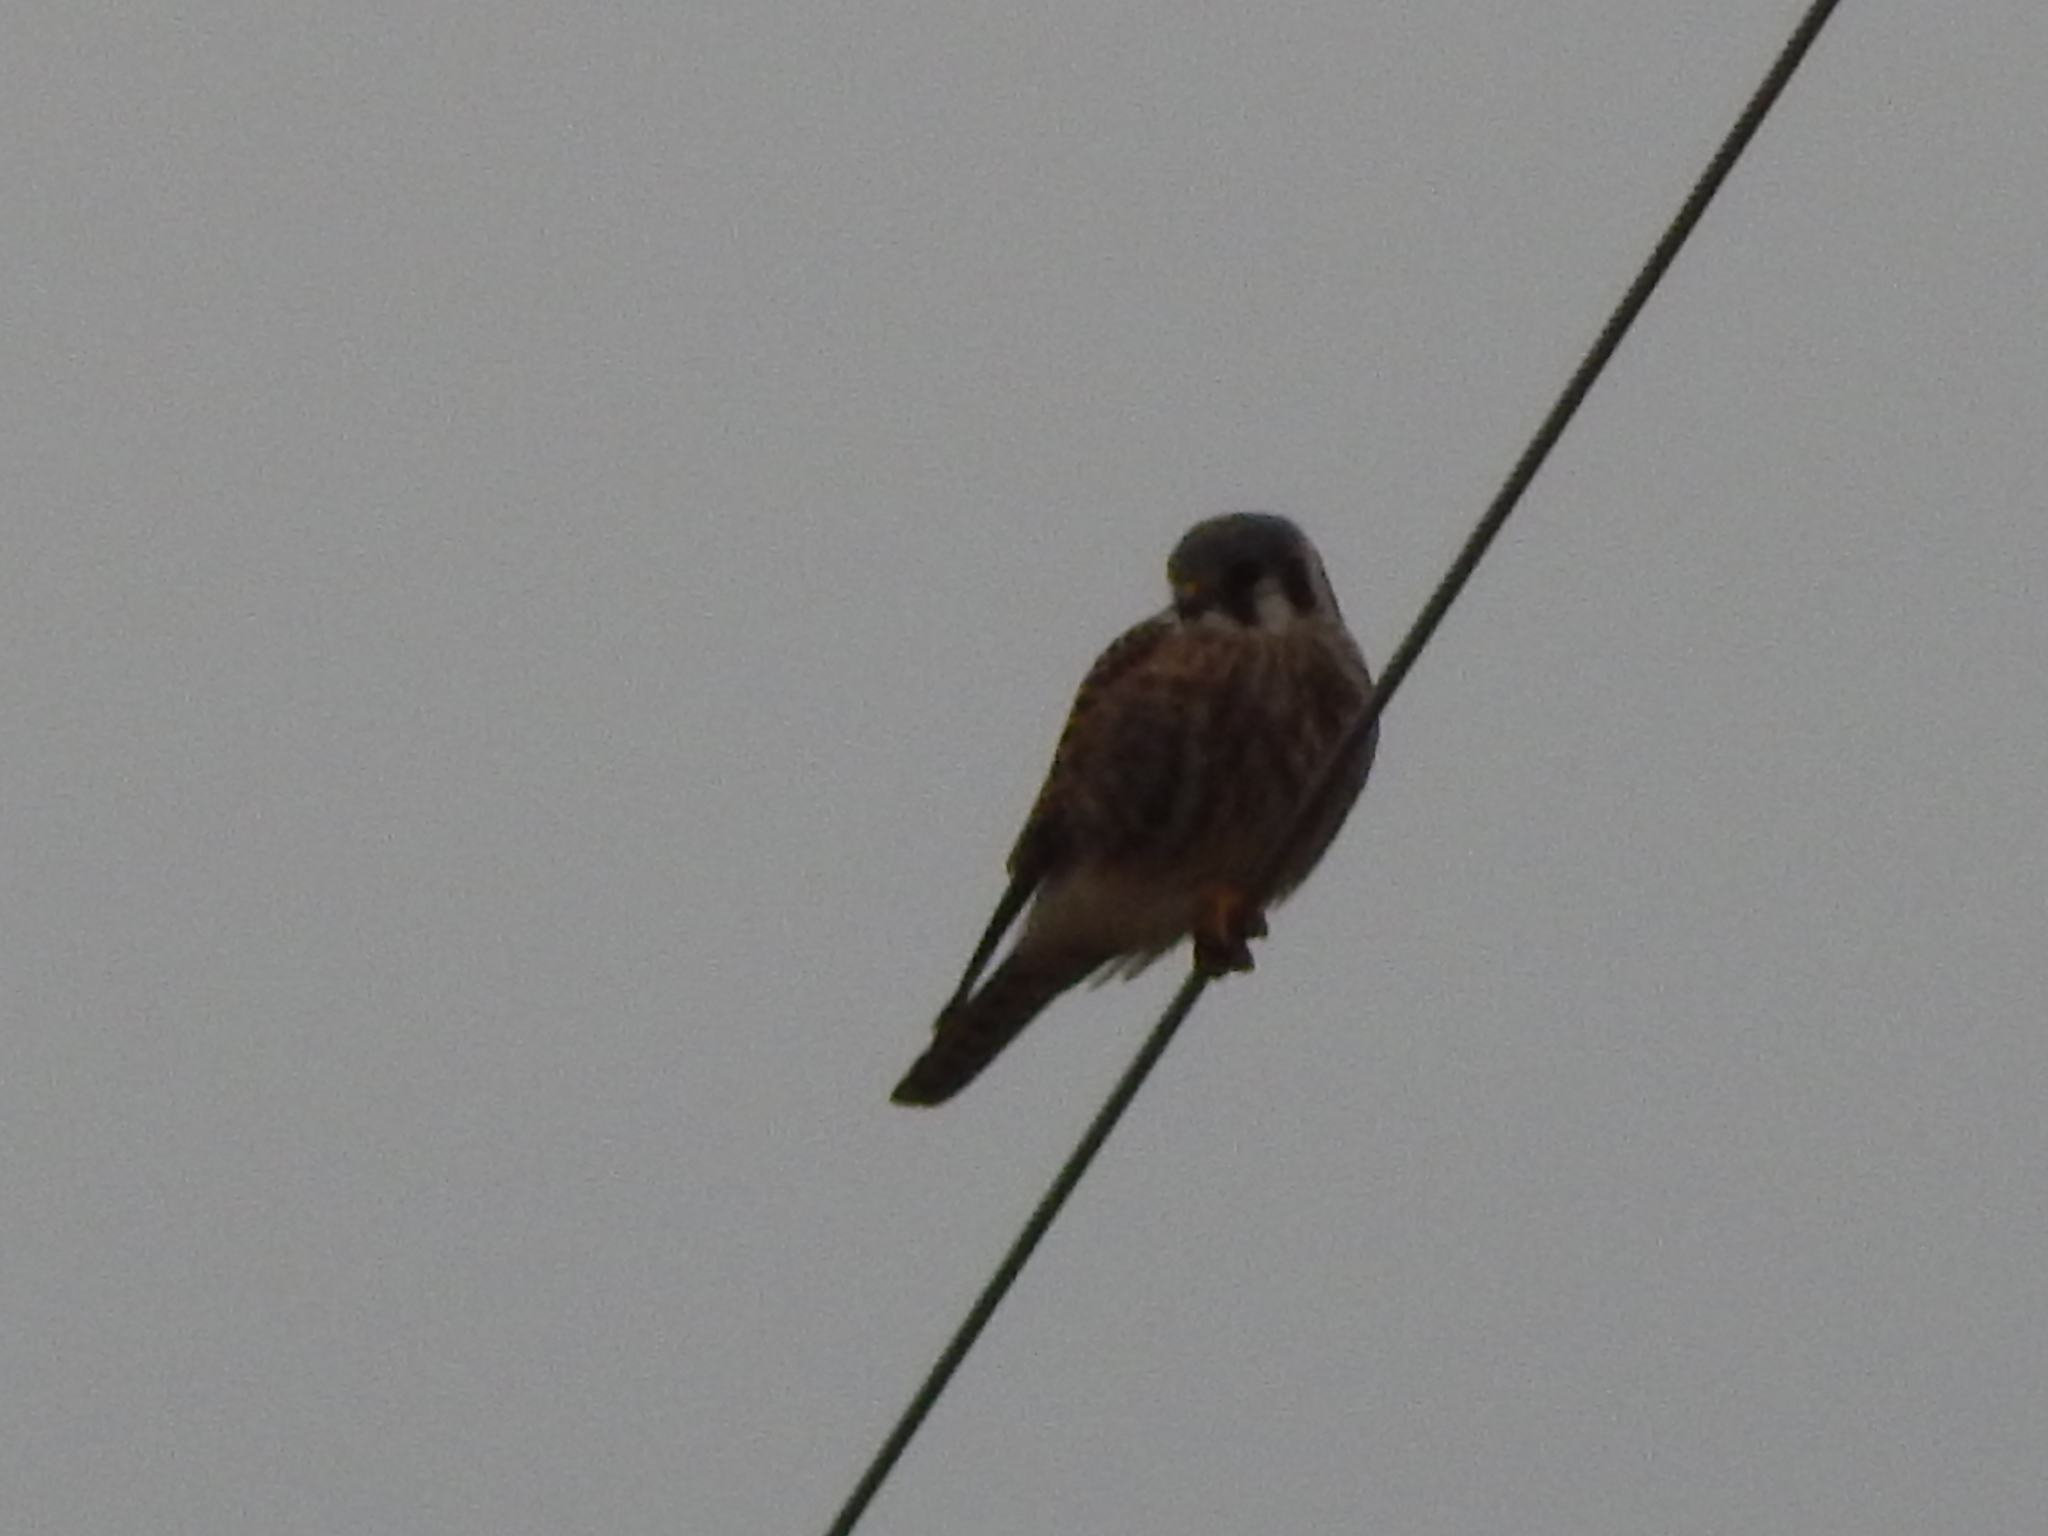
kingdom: Animalia
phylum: Chordata
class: Aves
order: Falconiformes
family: Falconidae
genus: Falco
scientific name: Falco sparverius
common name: American kestrel
